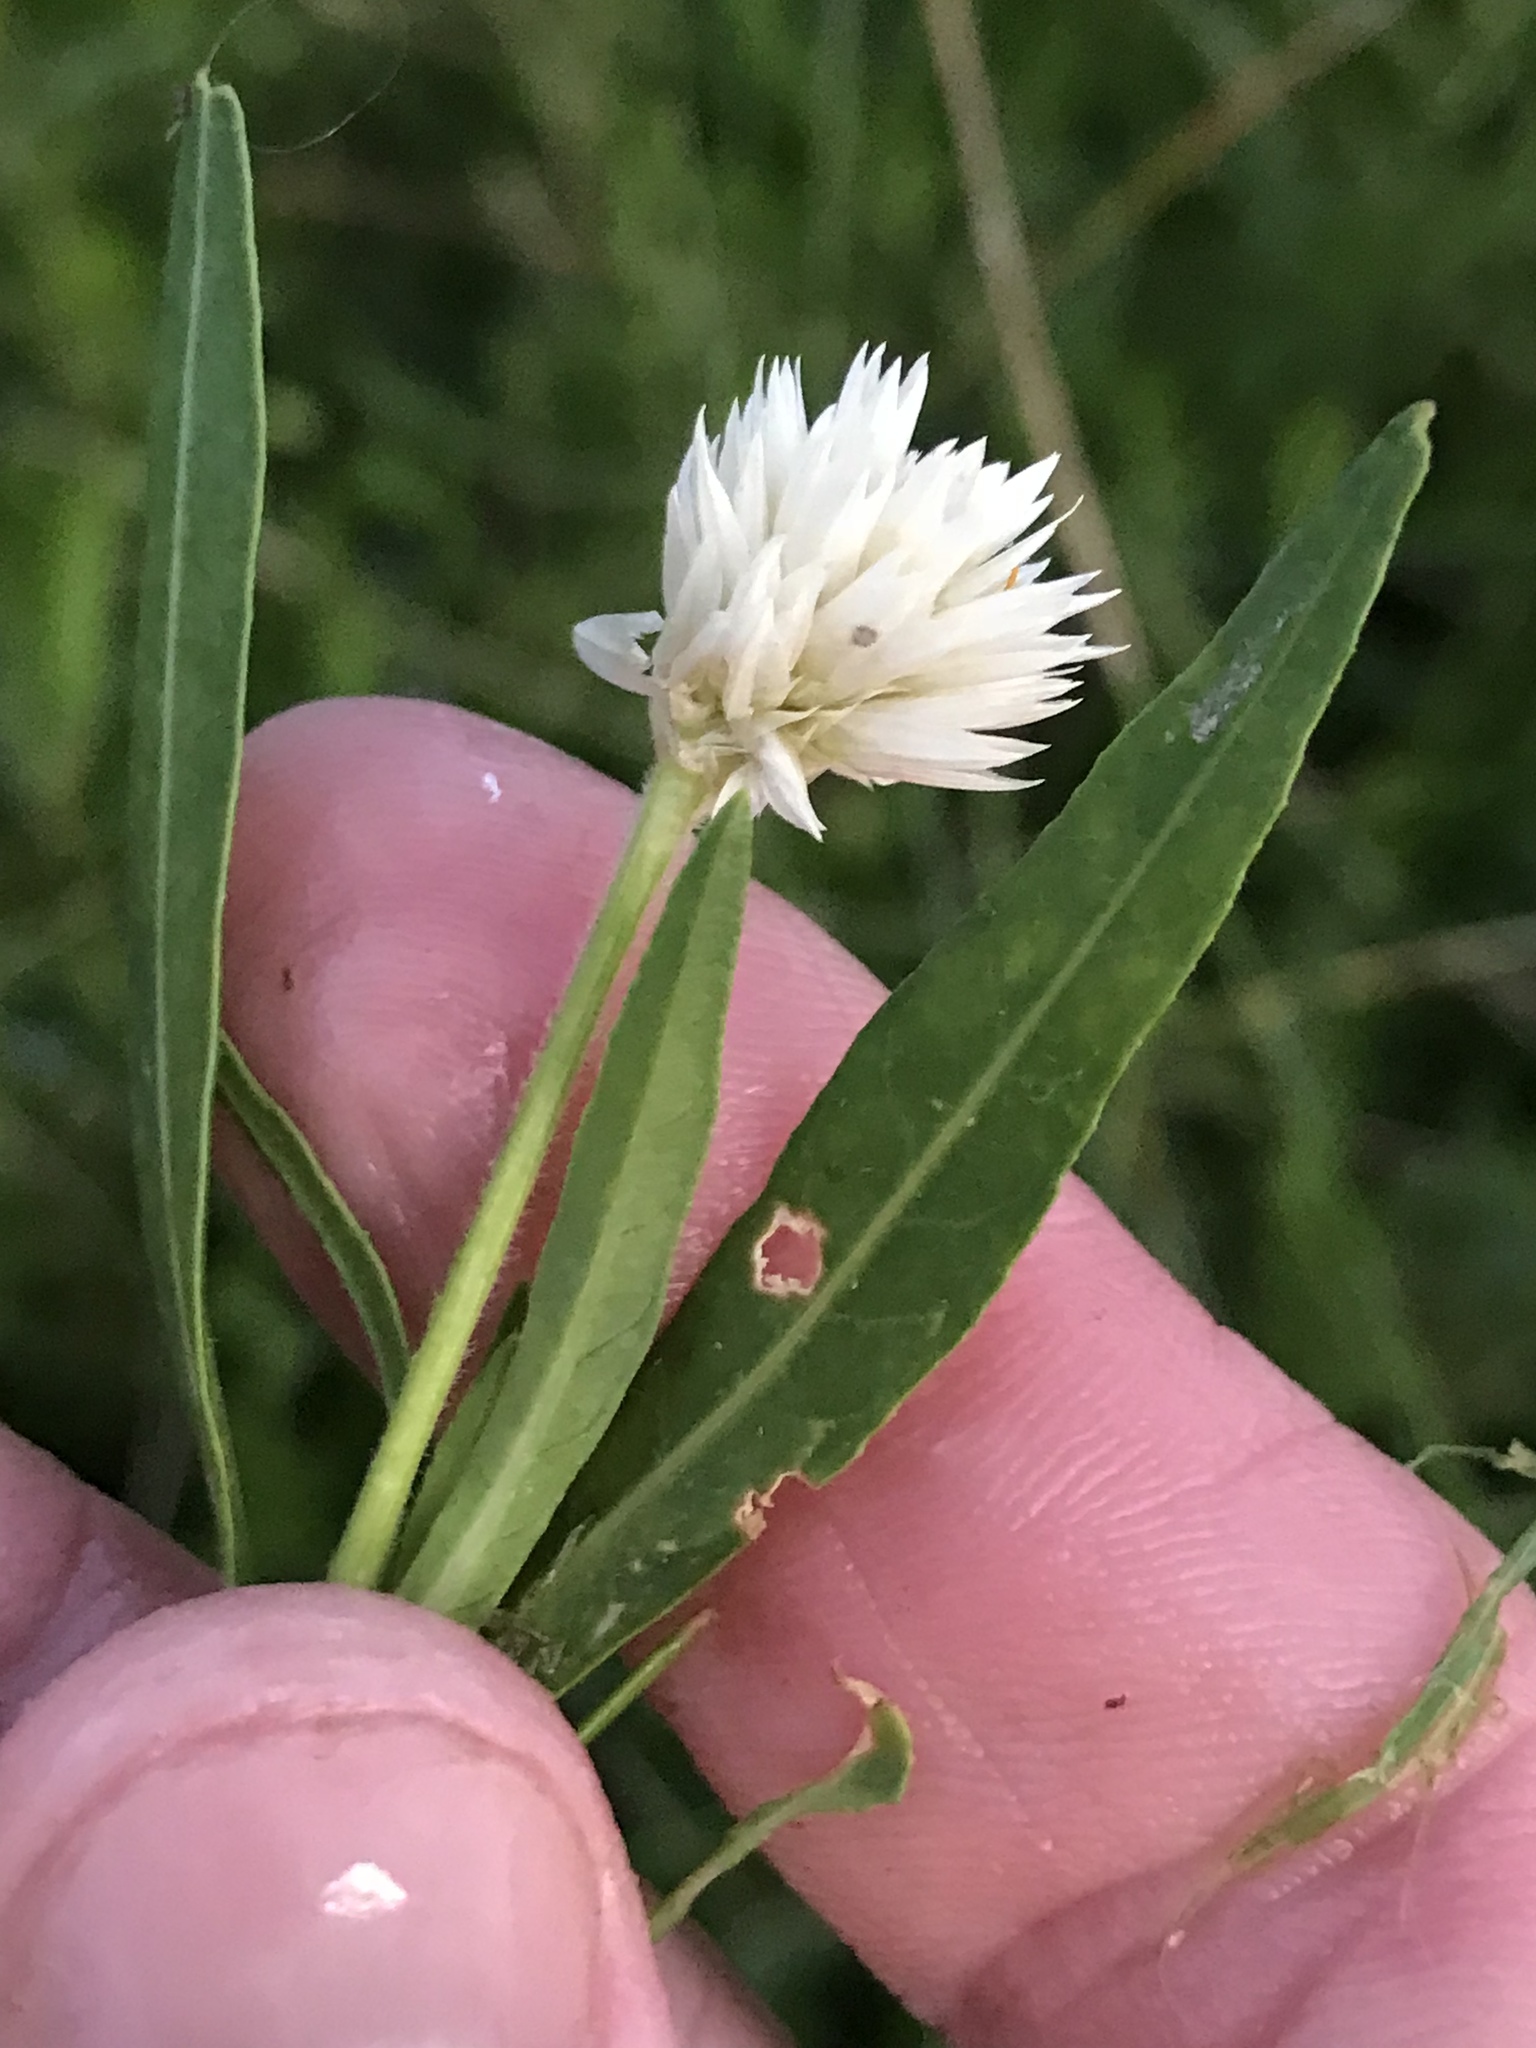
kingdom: Plantae
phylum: Tracheophyta
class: Magnoliopsida
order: Caryophyllales
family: Amaranthaceae
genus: Alternanthera
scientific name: Alternanthera philoxeroides
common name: Alligatorweed
